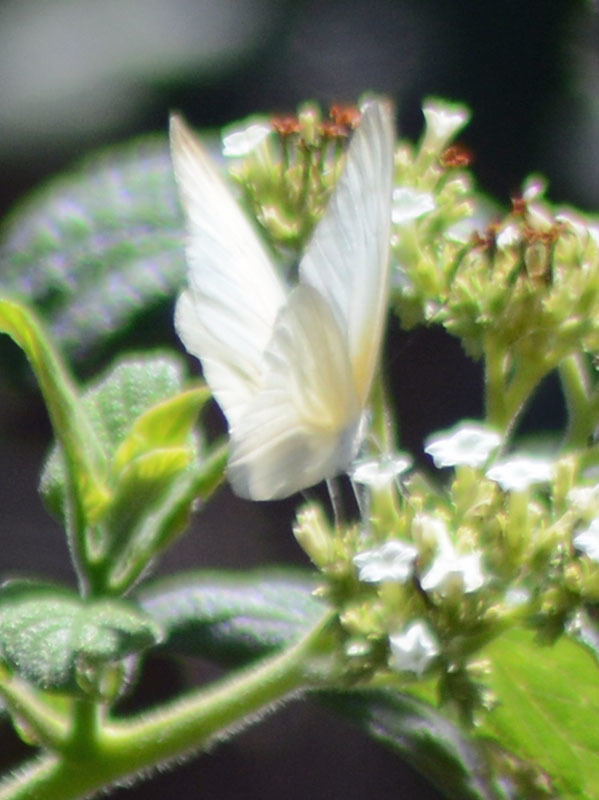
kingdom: Animalia
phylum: Arthropoda
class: Insecta
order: Lepidoptera
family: Pieridae
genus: Glutophrissa
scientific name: Glutophrissa drusilla
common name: Florida white
